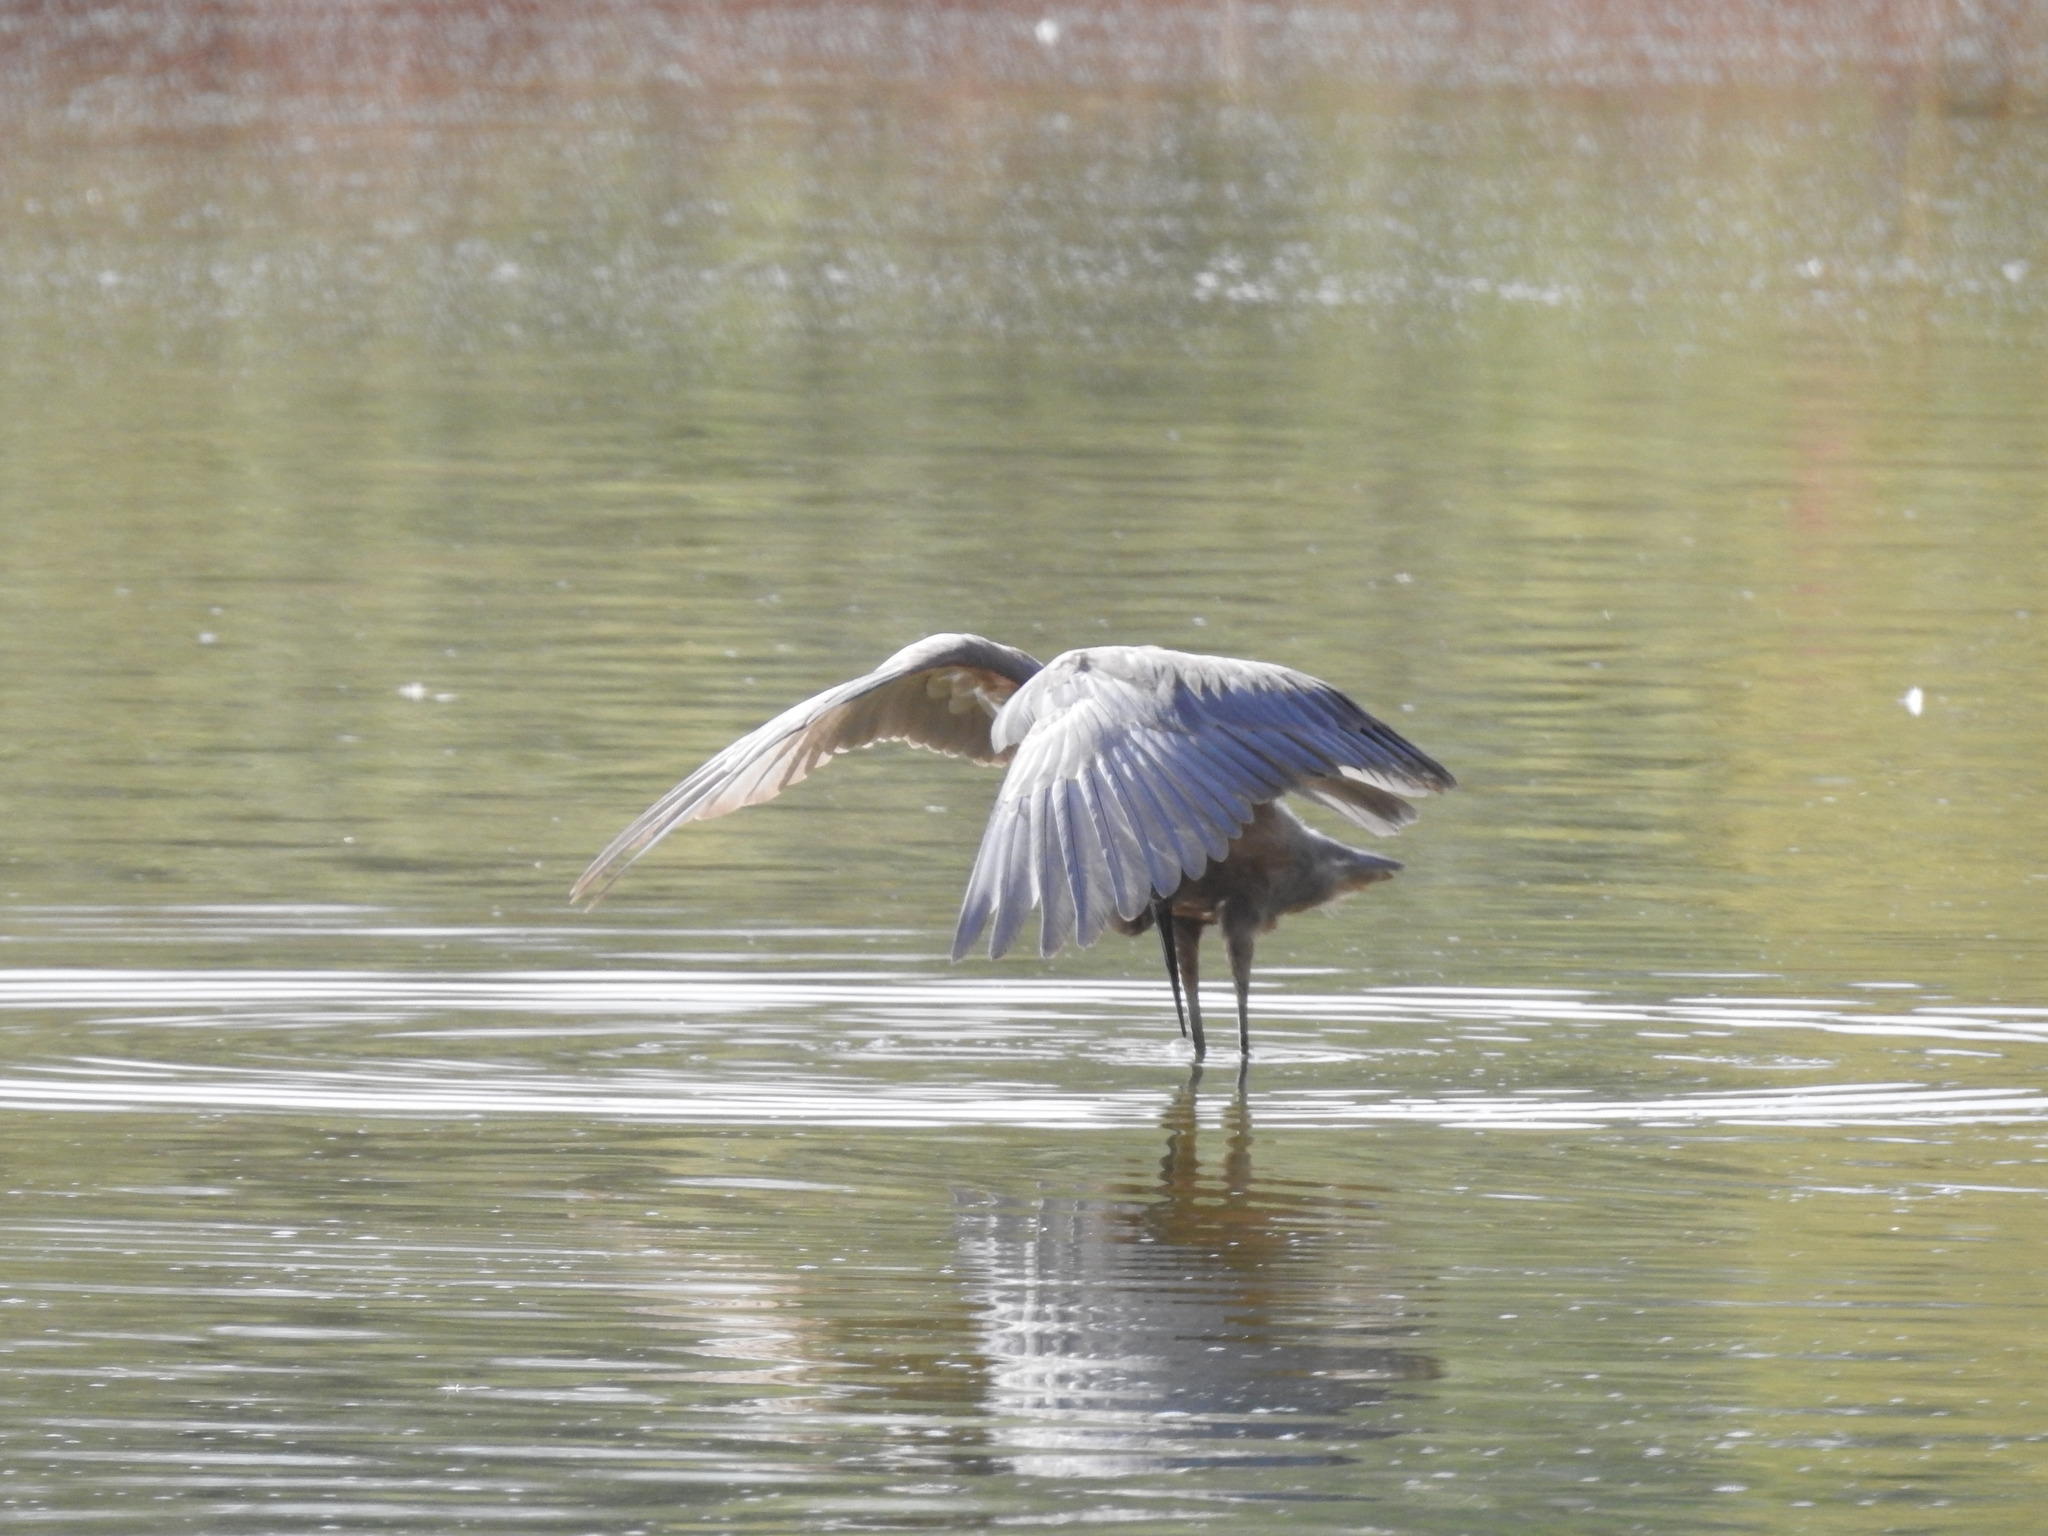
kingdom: Animalia
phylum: Chordata
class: Aves
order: Pelecaniformes
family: Ardeidae
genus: Egretta
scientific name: Egretta rufescens
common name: Reddish egret
